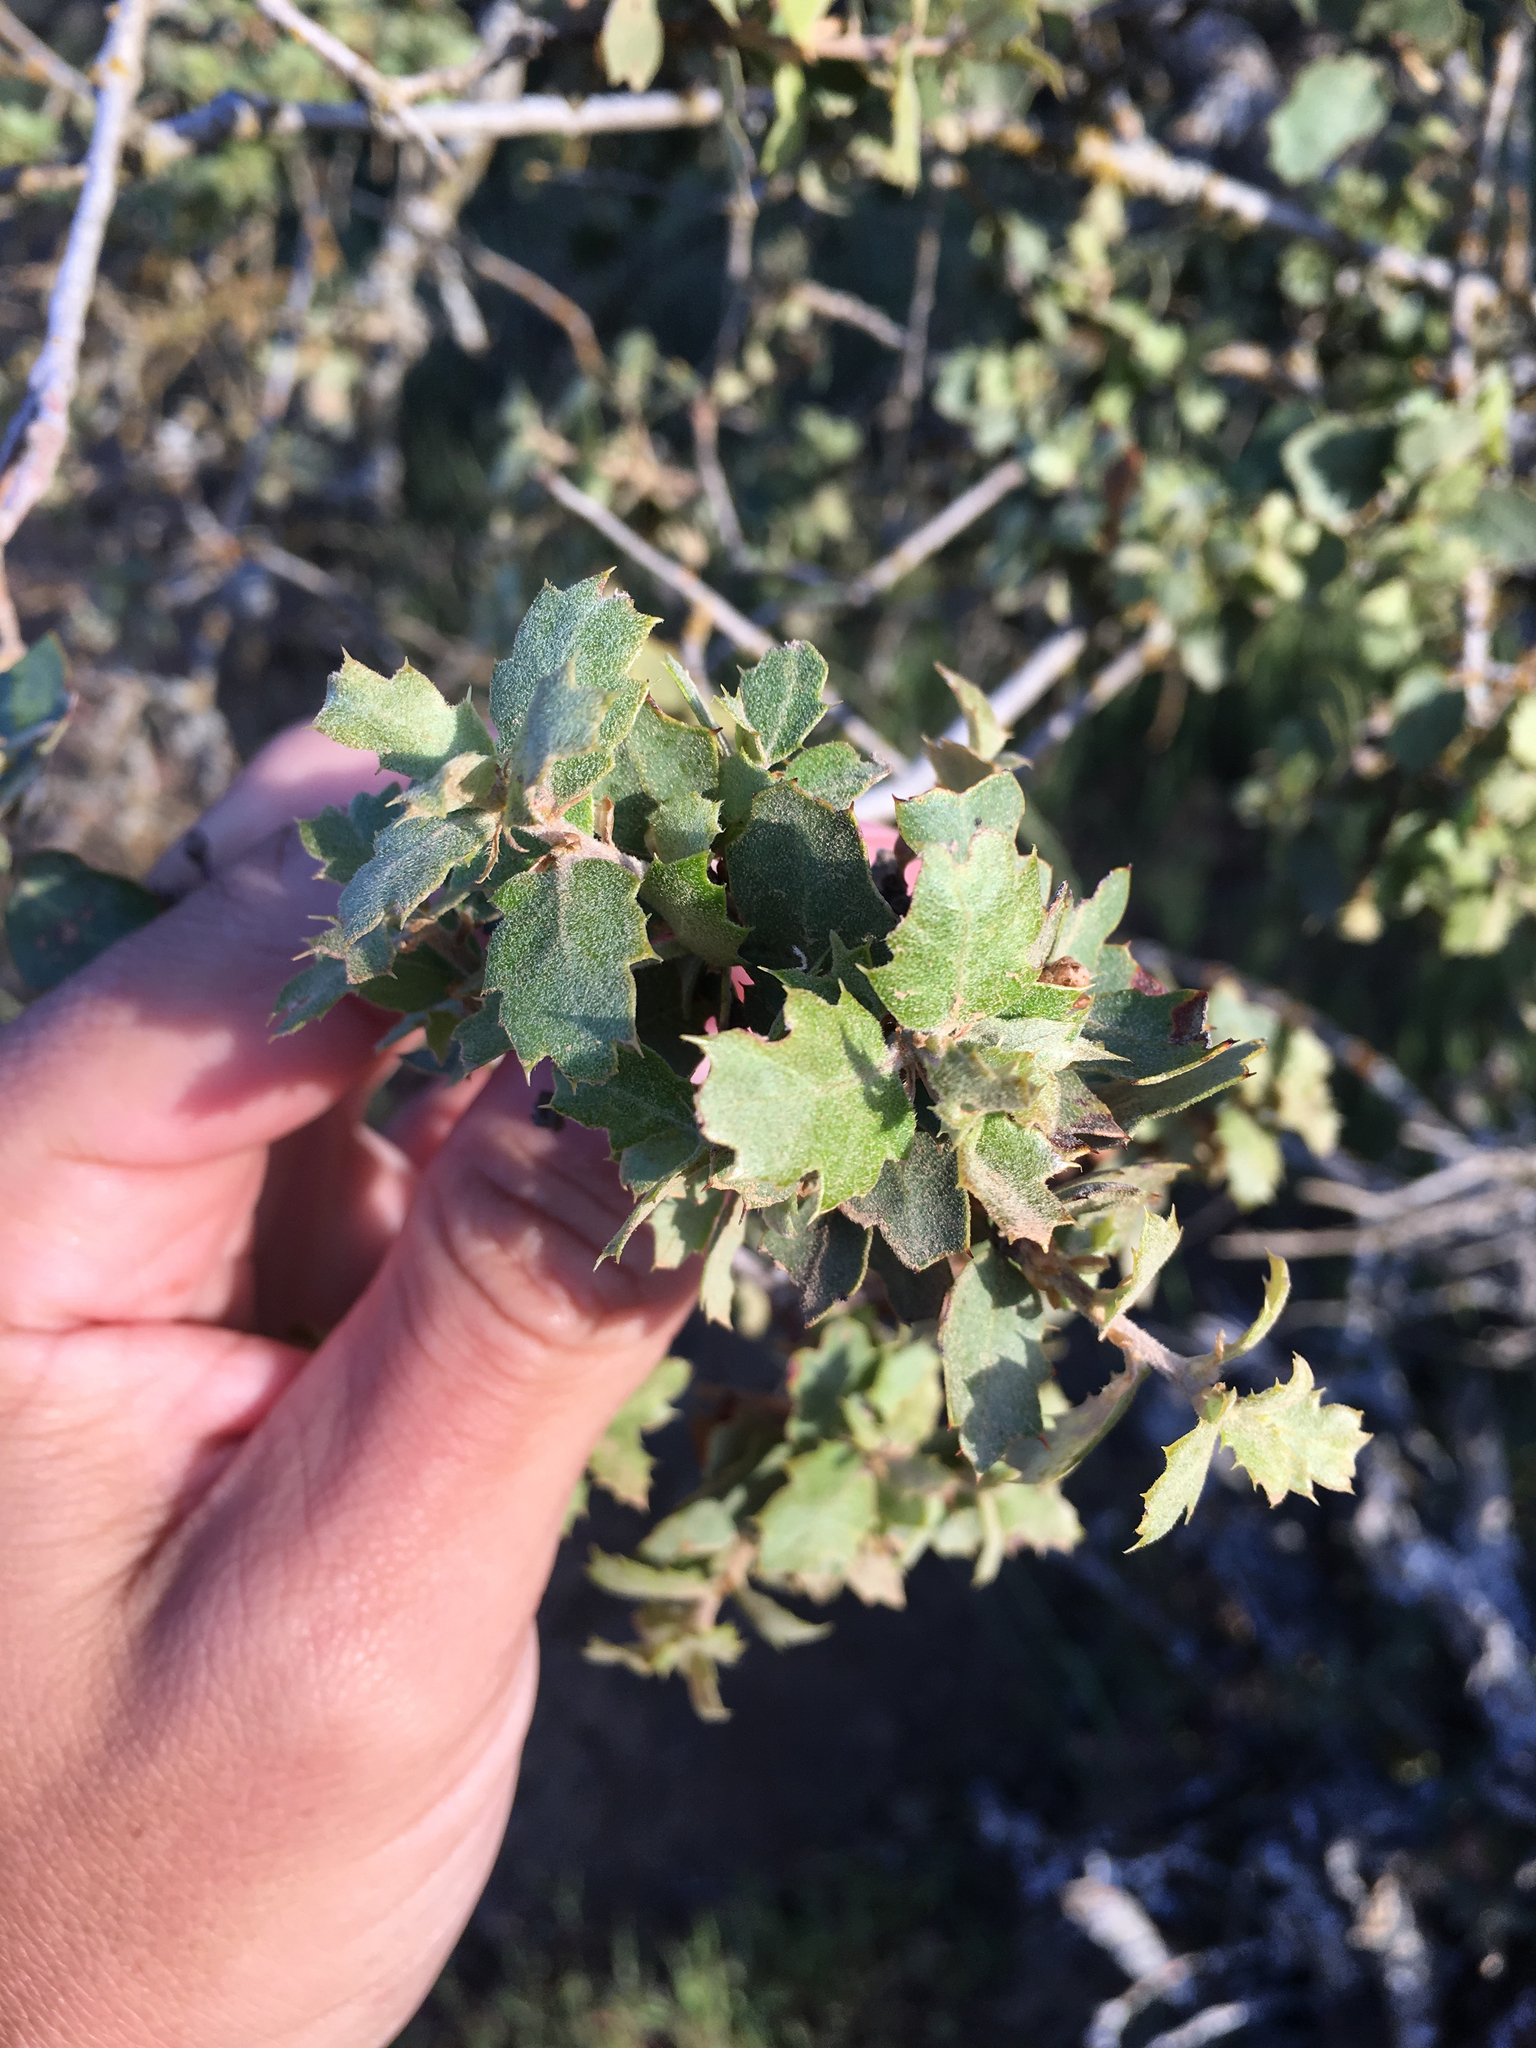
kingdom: Plantae
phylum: Tracheophyta
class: Magnoliopsida
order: Fagales
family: Fagaceae
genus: Quercus
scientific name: Quercus john-tuckeri
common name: Tucker's oak
